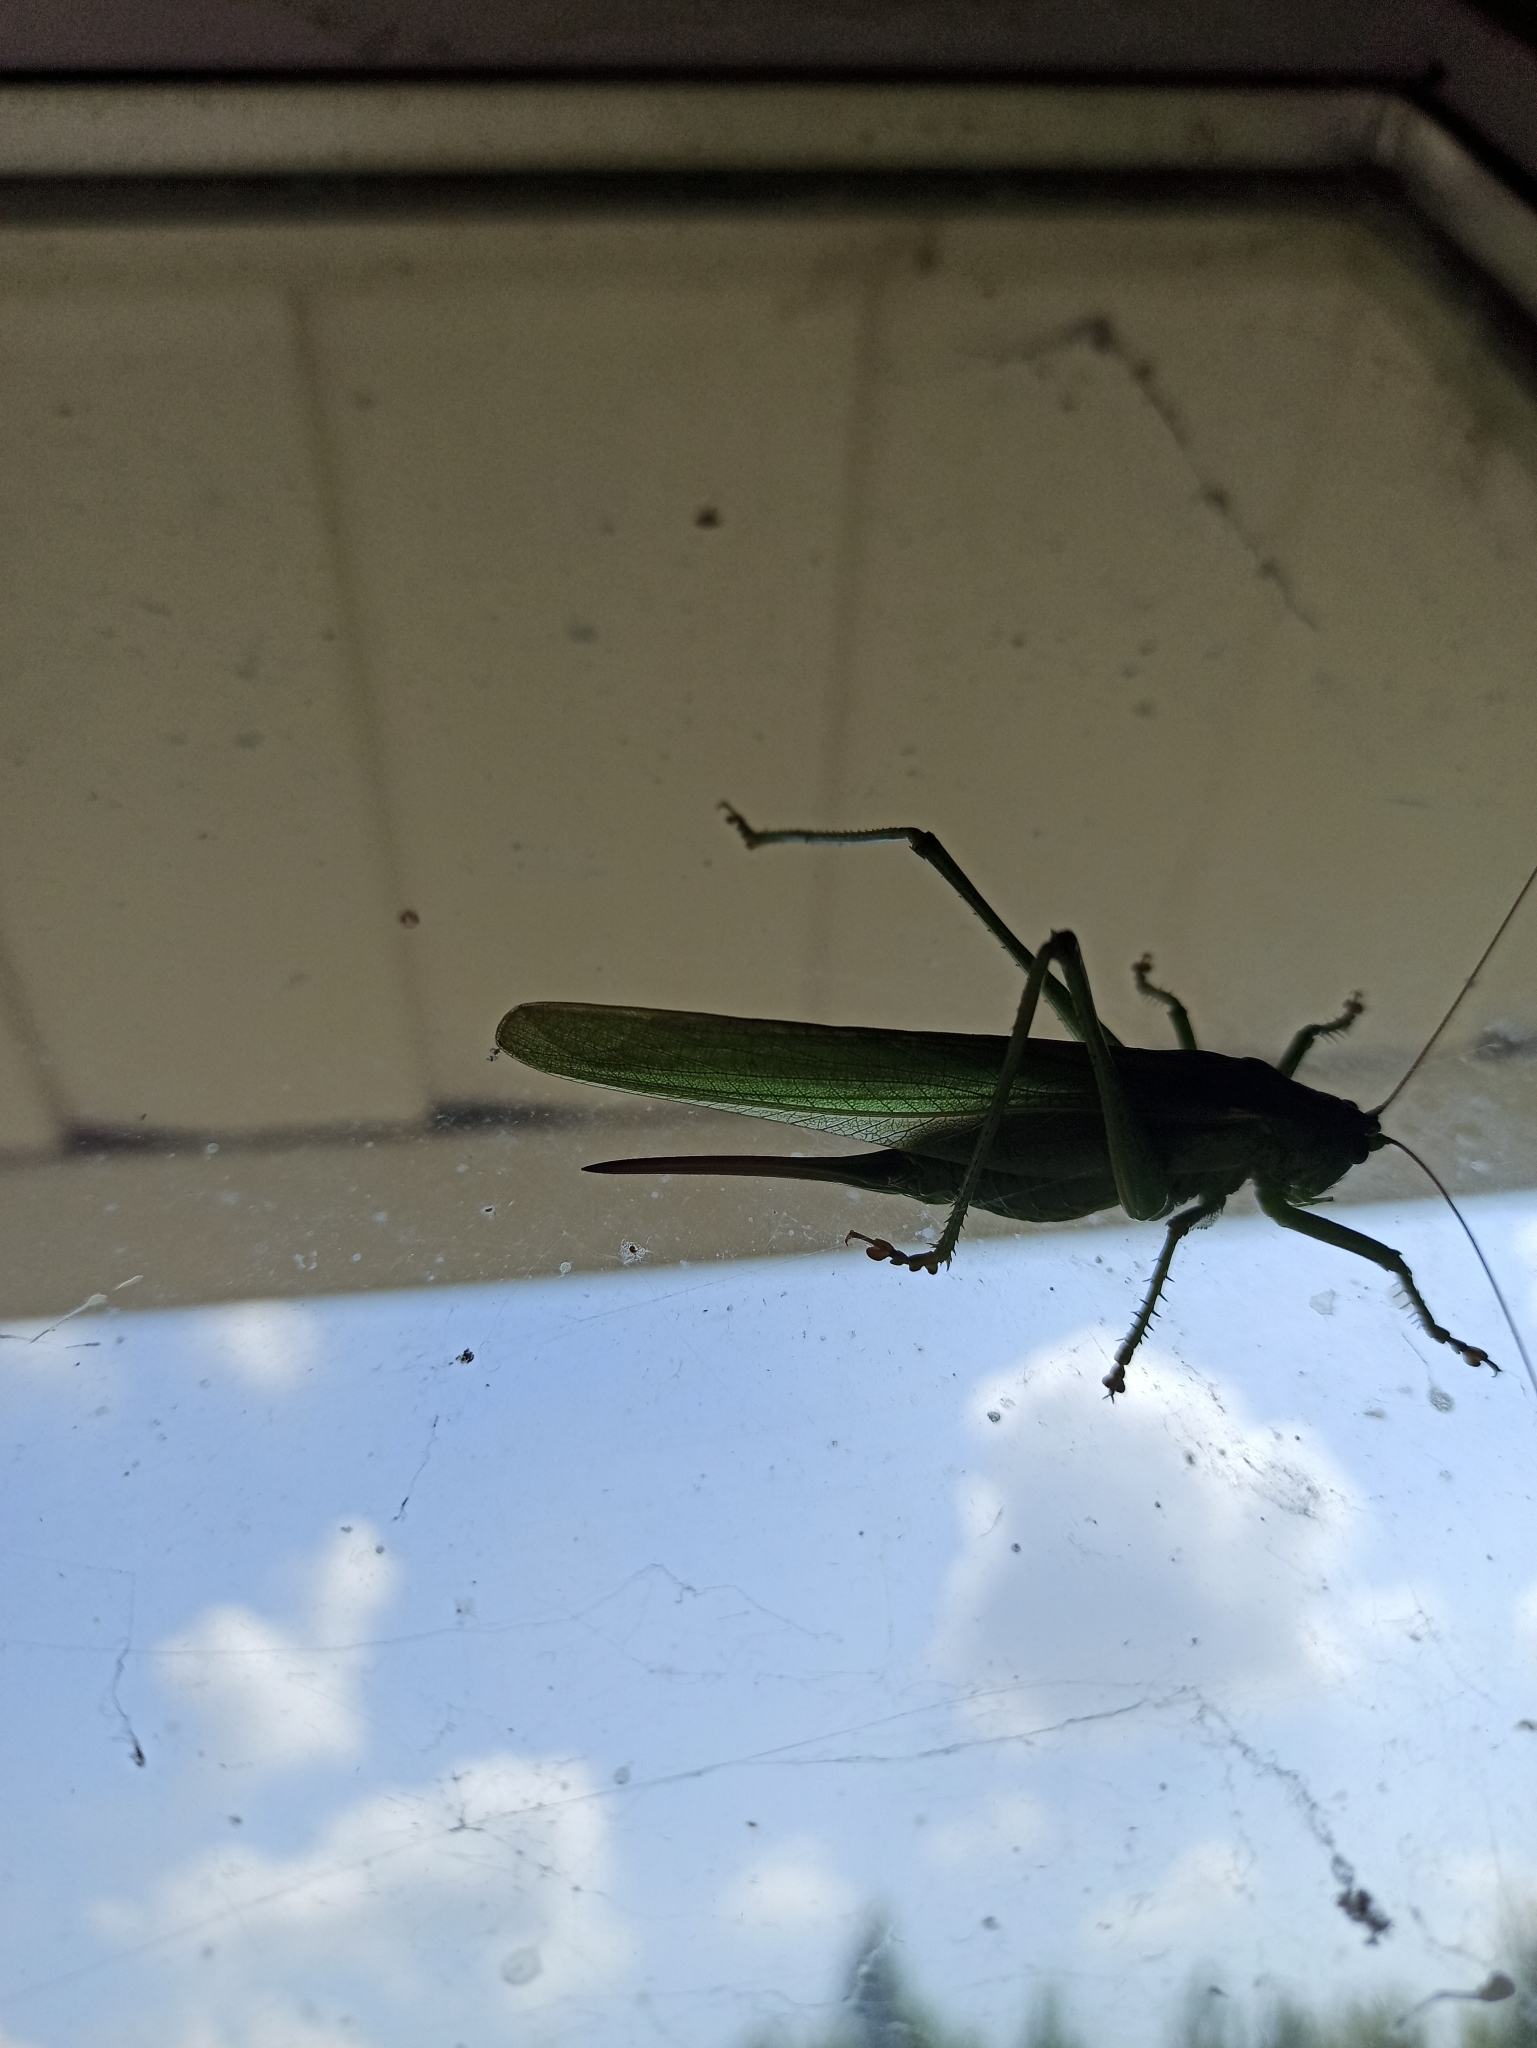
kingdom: Animalia
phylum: Arthropoda
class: Insecta
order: Orthoptera
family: Tettigoniidae
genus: Tettigonia
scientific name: Tettigonia viridissima
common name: Great green bush-cricket
